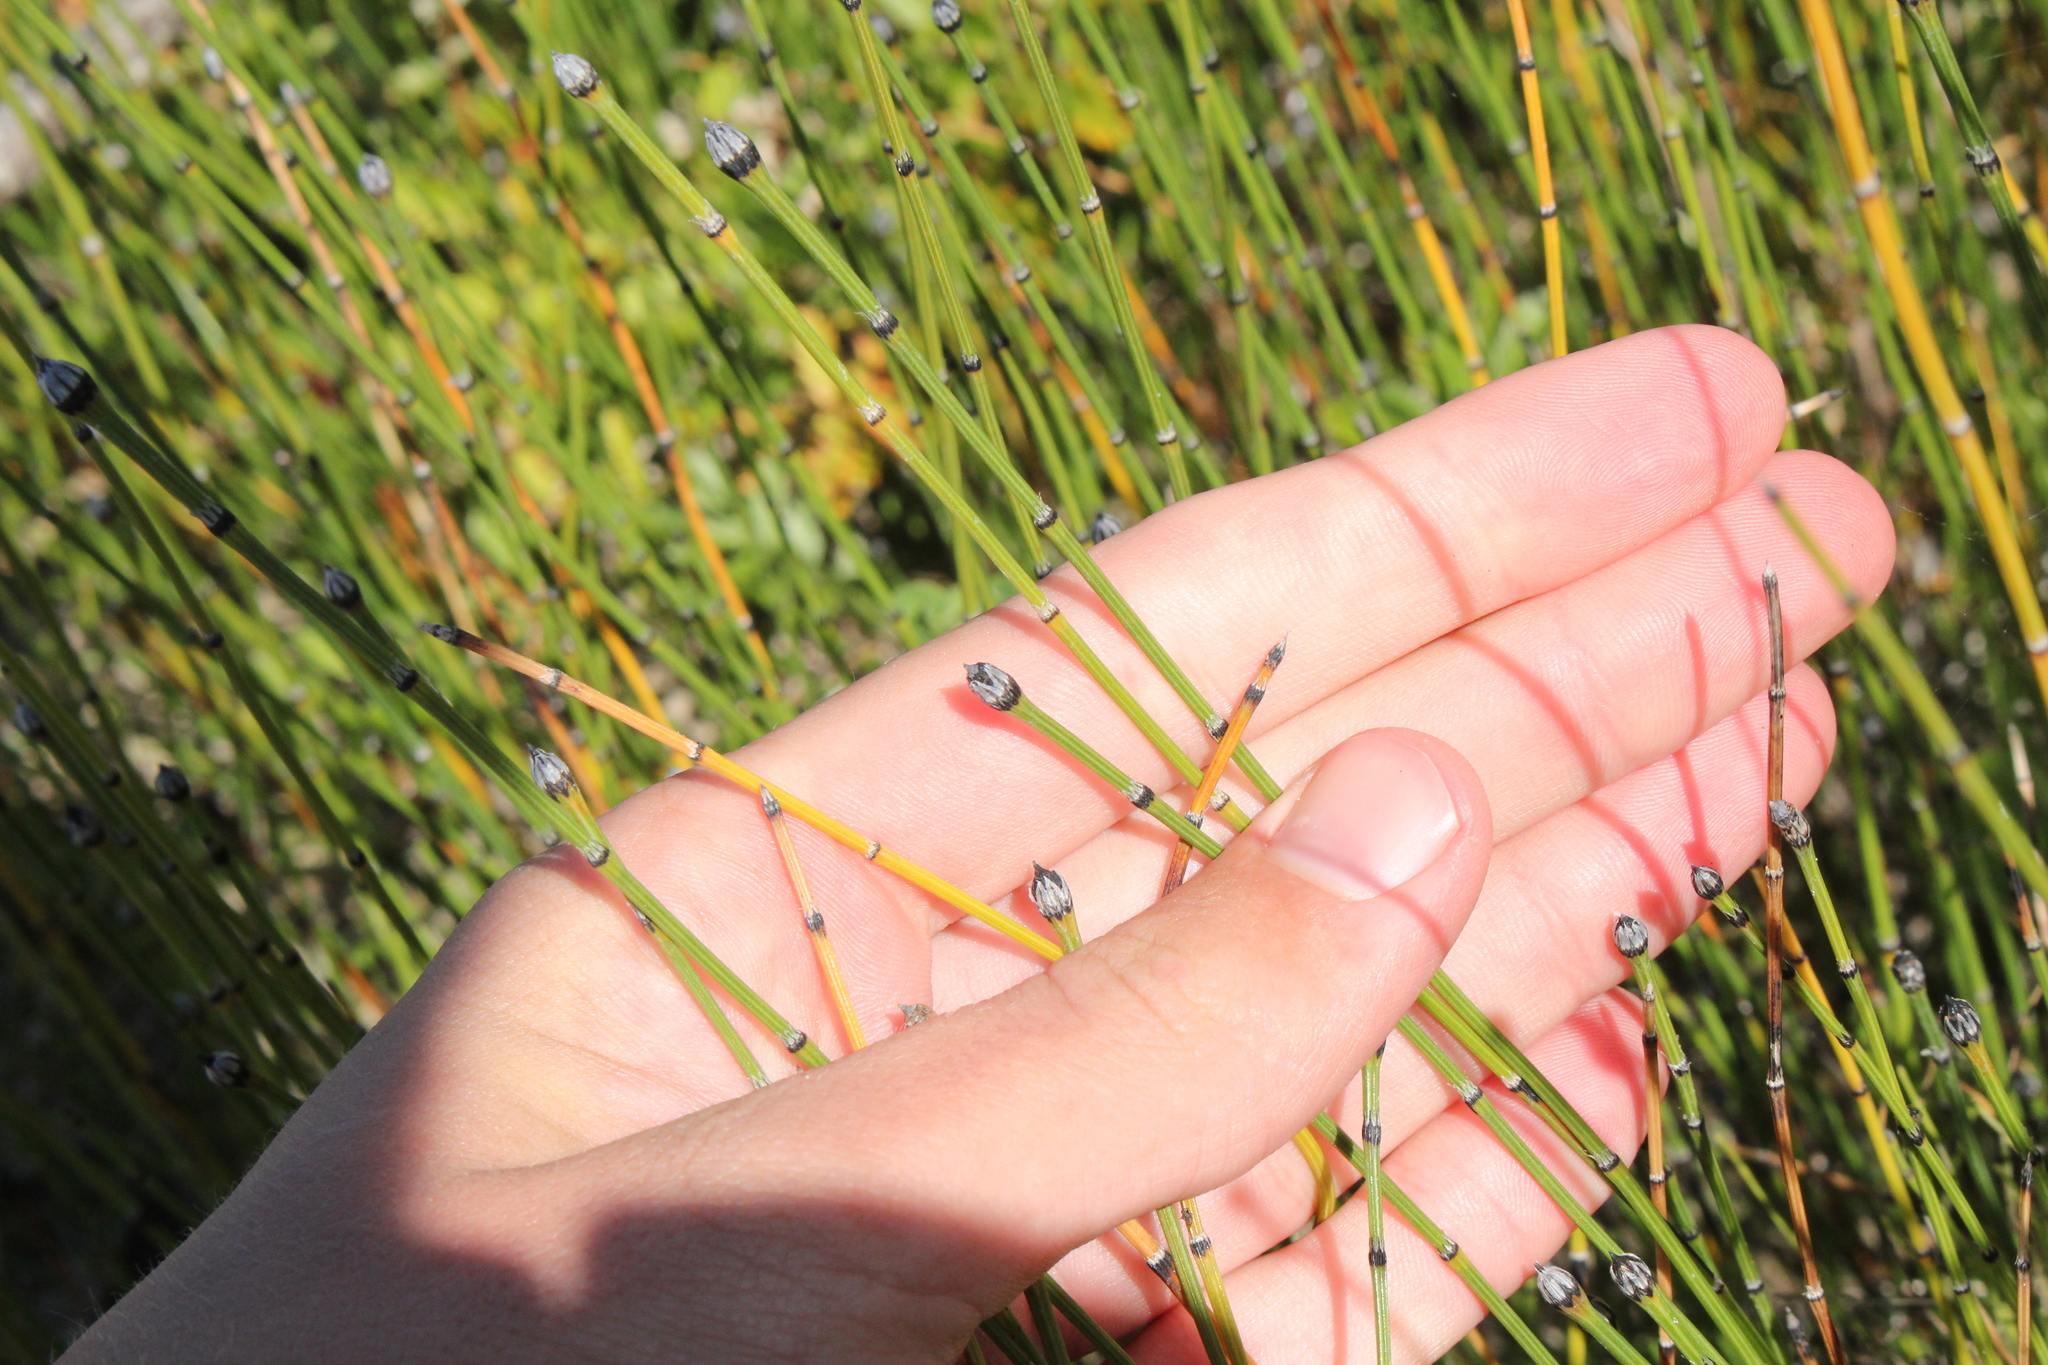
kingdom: Plantae
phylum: Tracheophyta
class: Polypodiopsida
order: Equisetales
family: Equisetaceae
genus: Equisetum
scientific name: Equisetum variegatum
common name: Variegated horsetail
